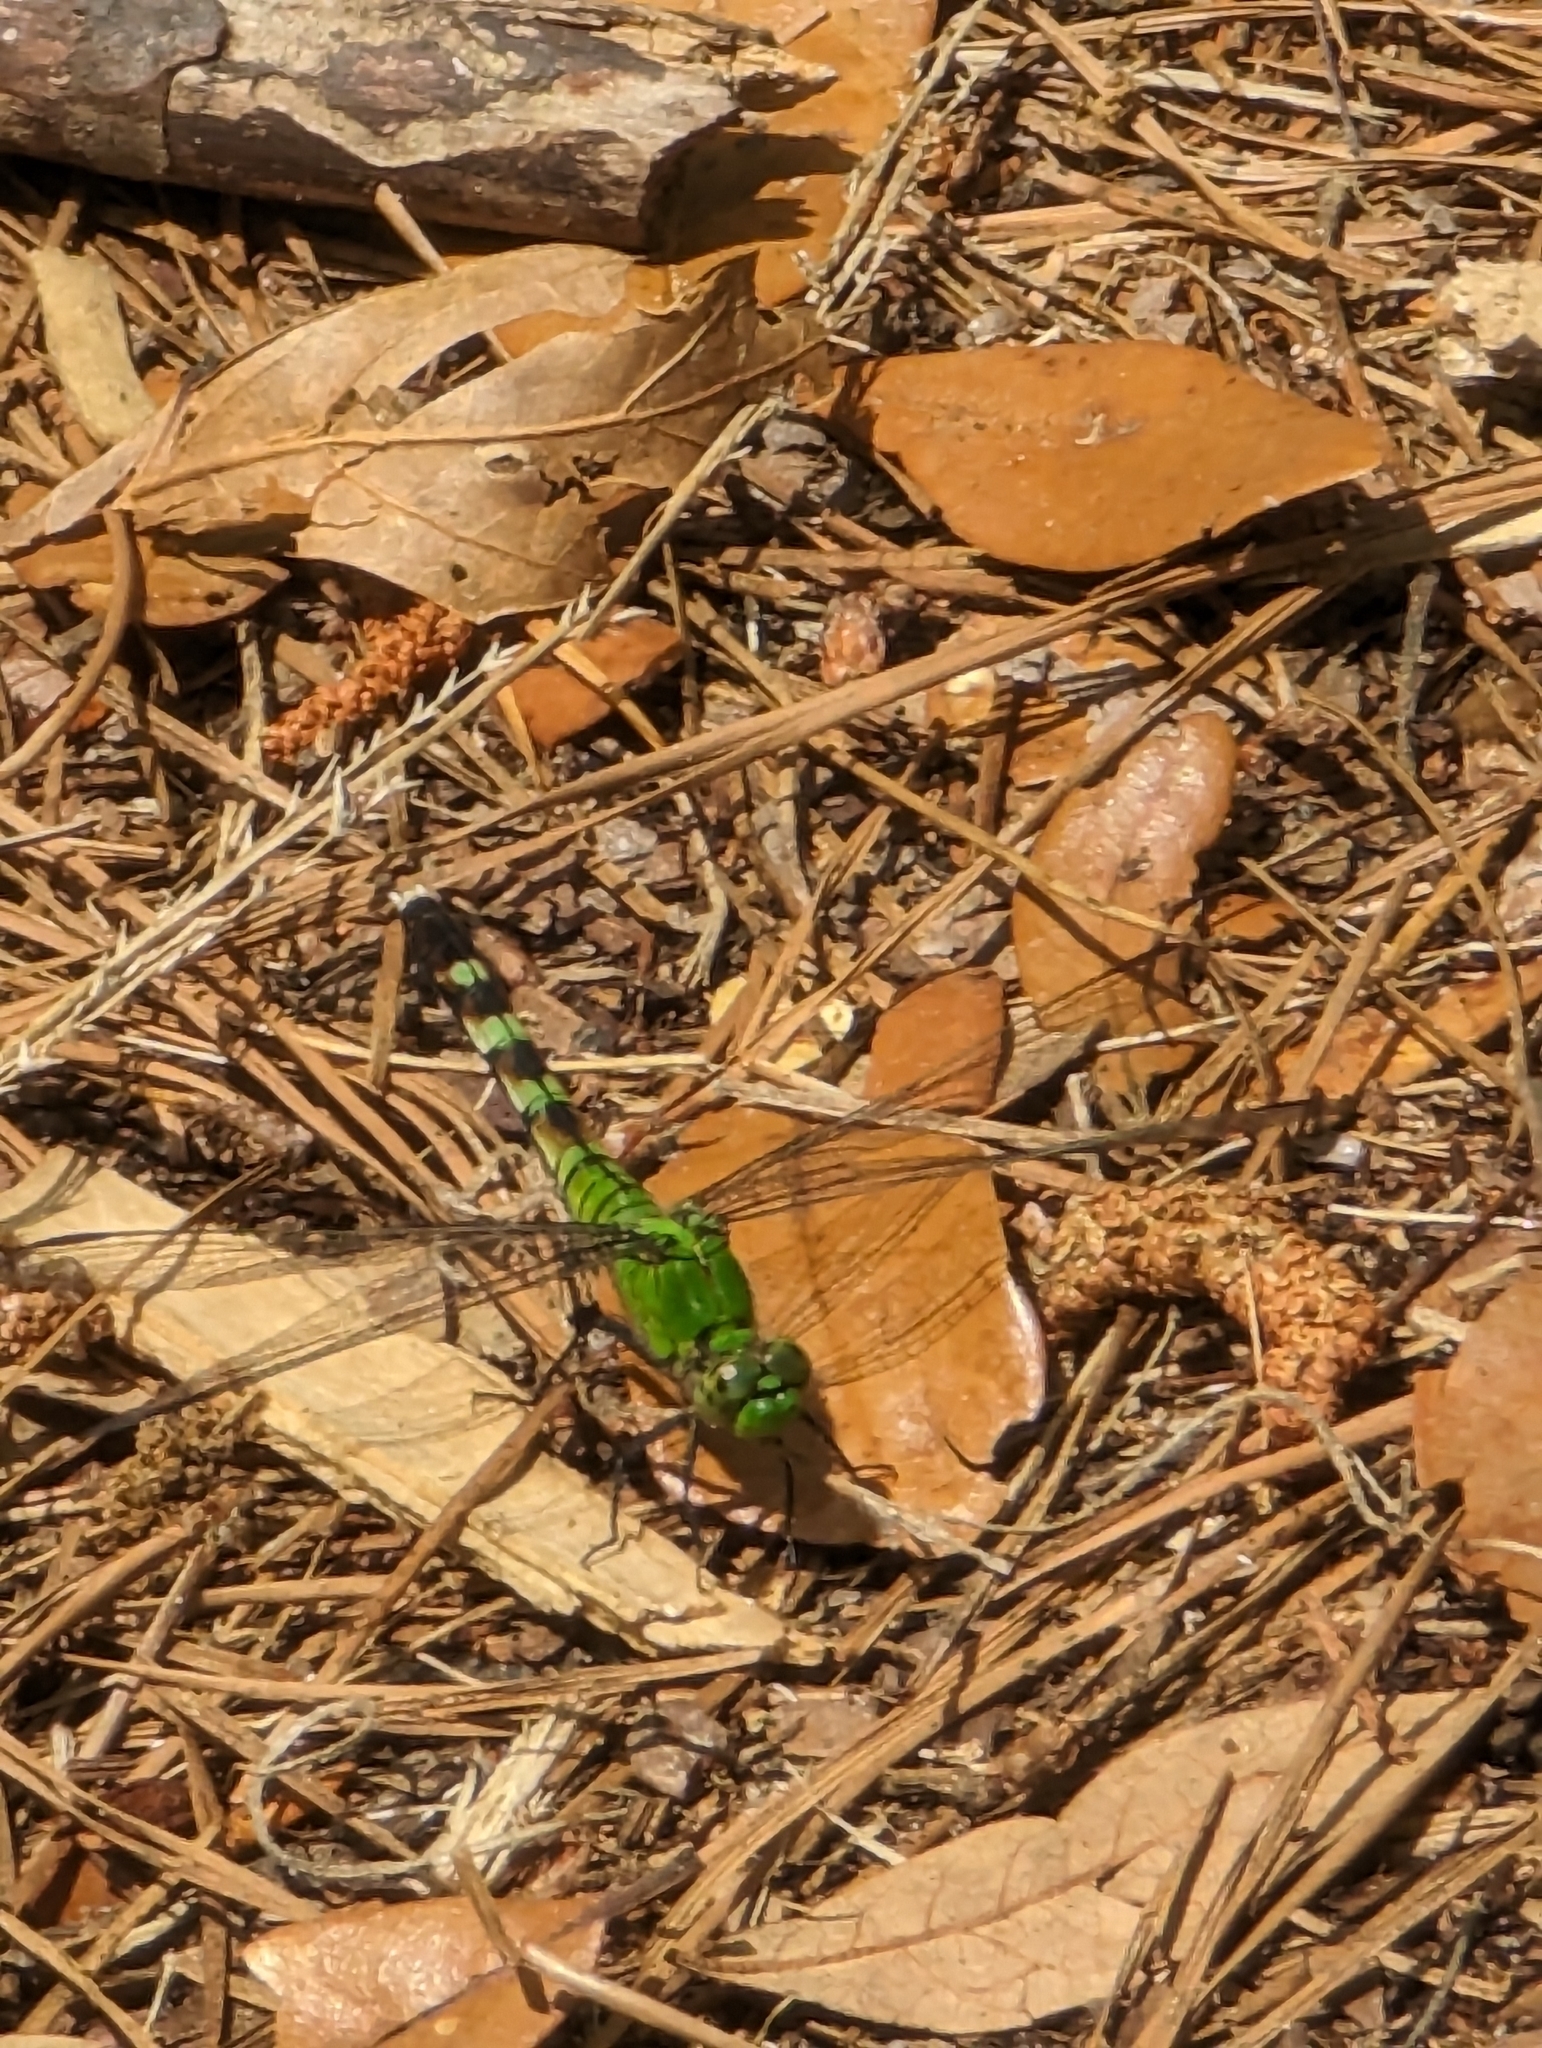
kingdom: Animalia
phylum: Arthropoda
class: Insecta
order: Odonata
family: Libellulidae
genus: Erythemis
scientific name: Erythemis simplicicollis
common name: Eastern pondhawk
